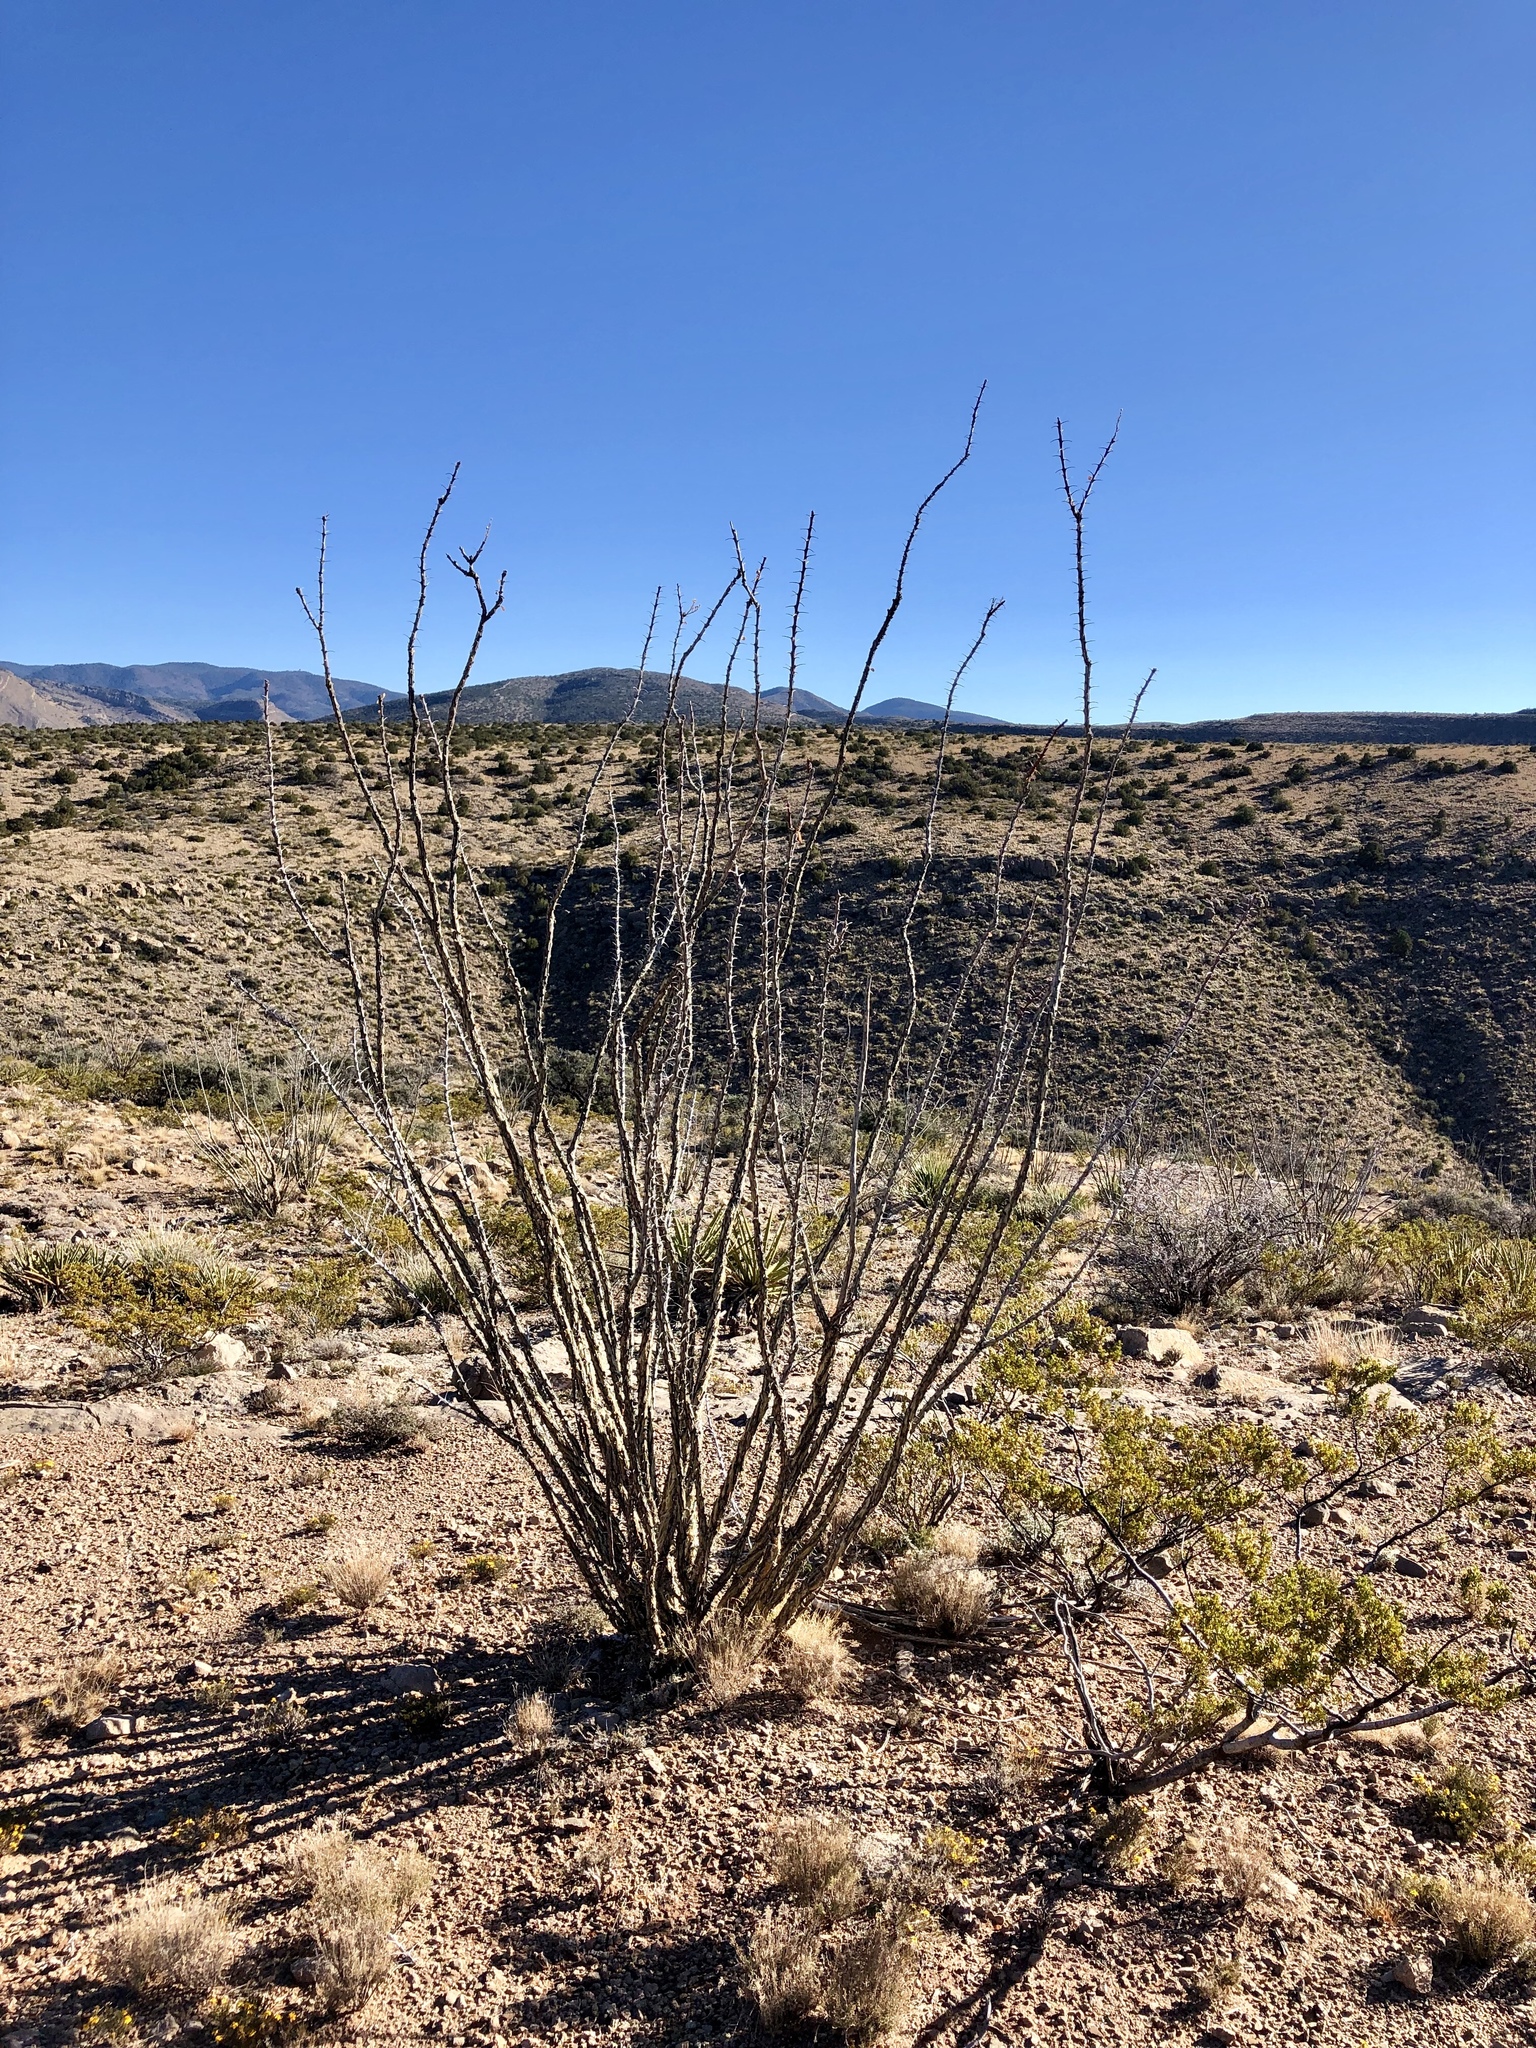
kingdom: Plantae
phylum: Tracheophyta
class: Magnoliopsida
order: Ericales
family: Fouquieriaceae
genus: Fouquieria
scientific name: Fouquieria splendens
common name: Vine-cactus
